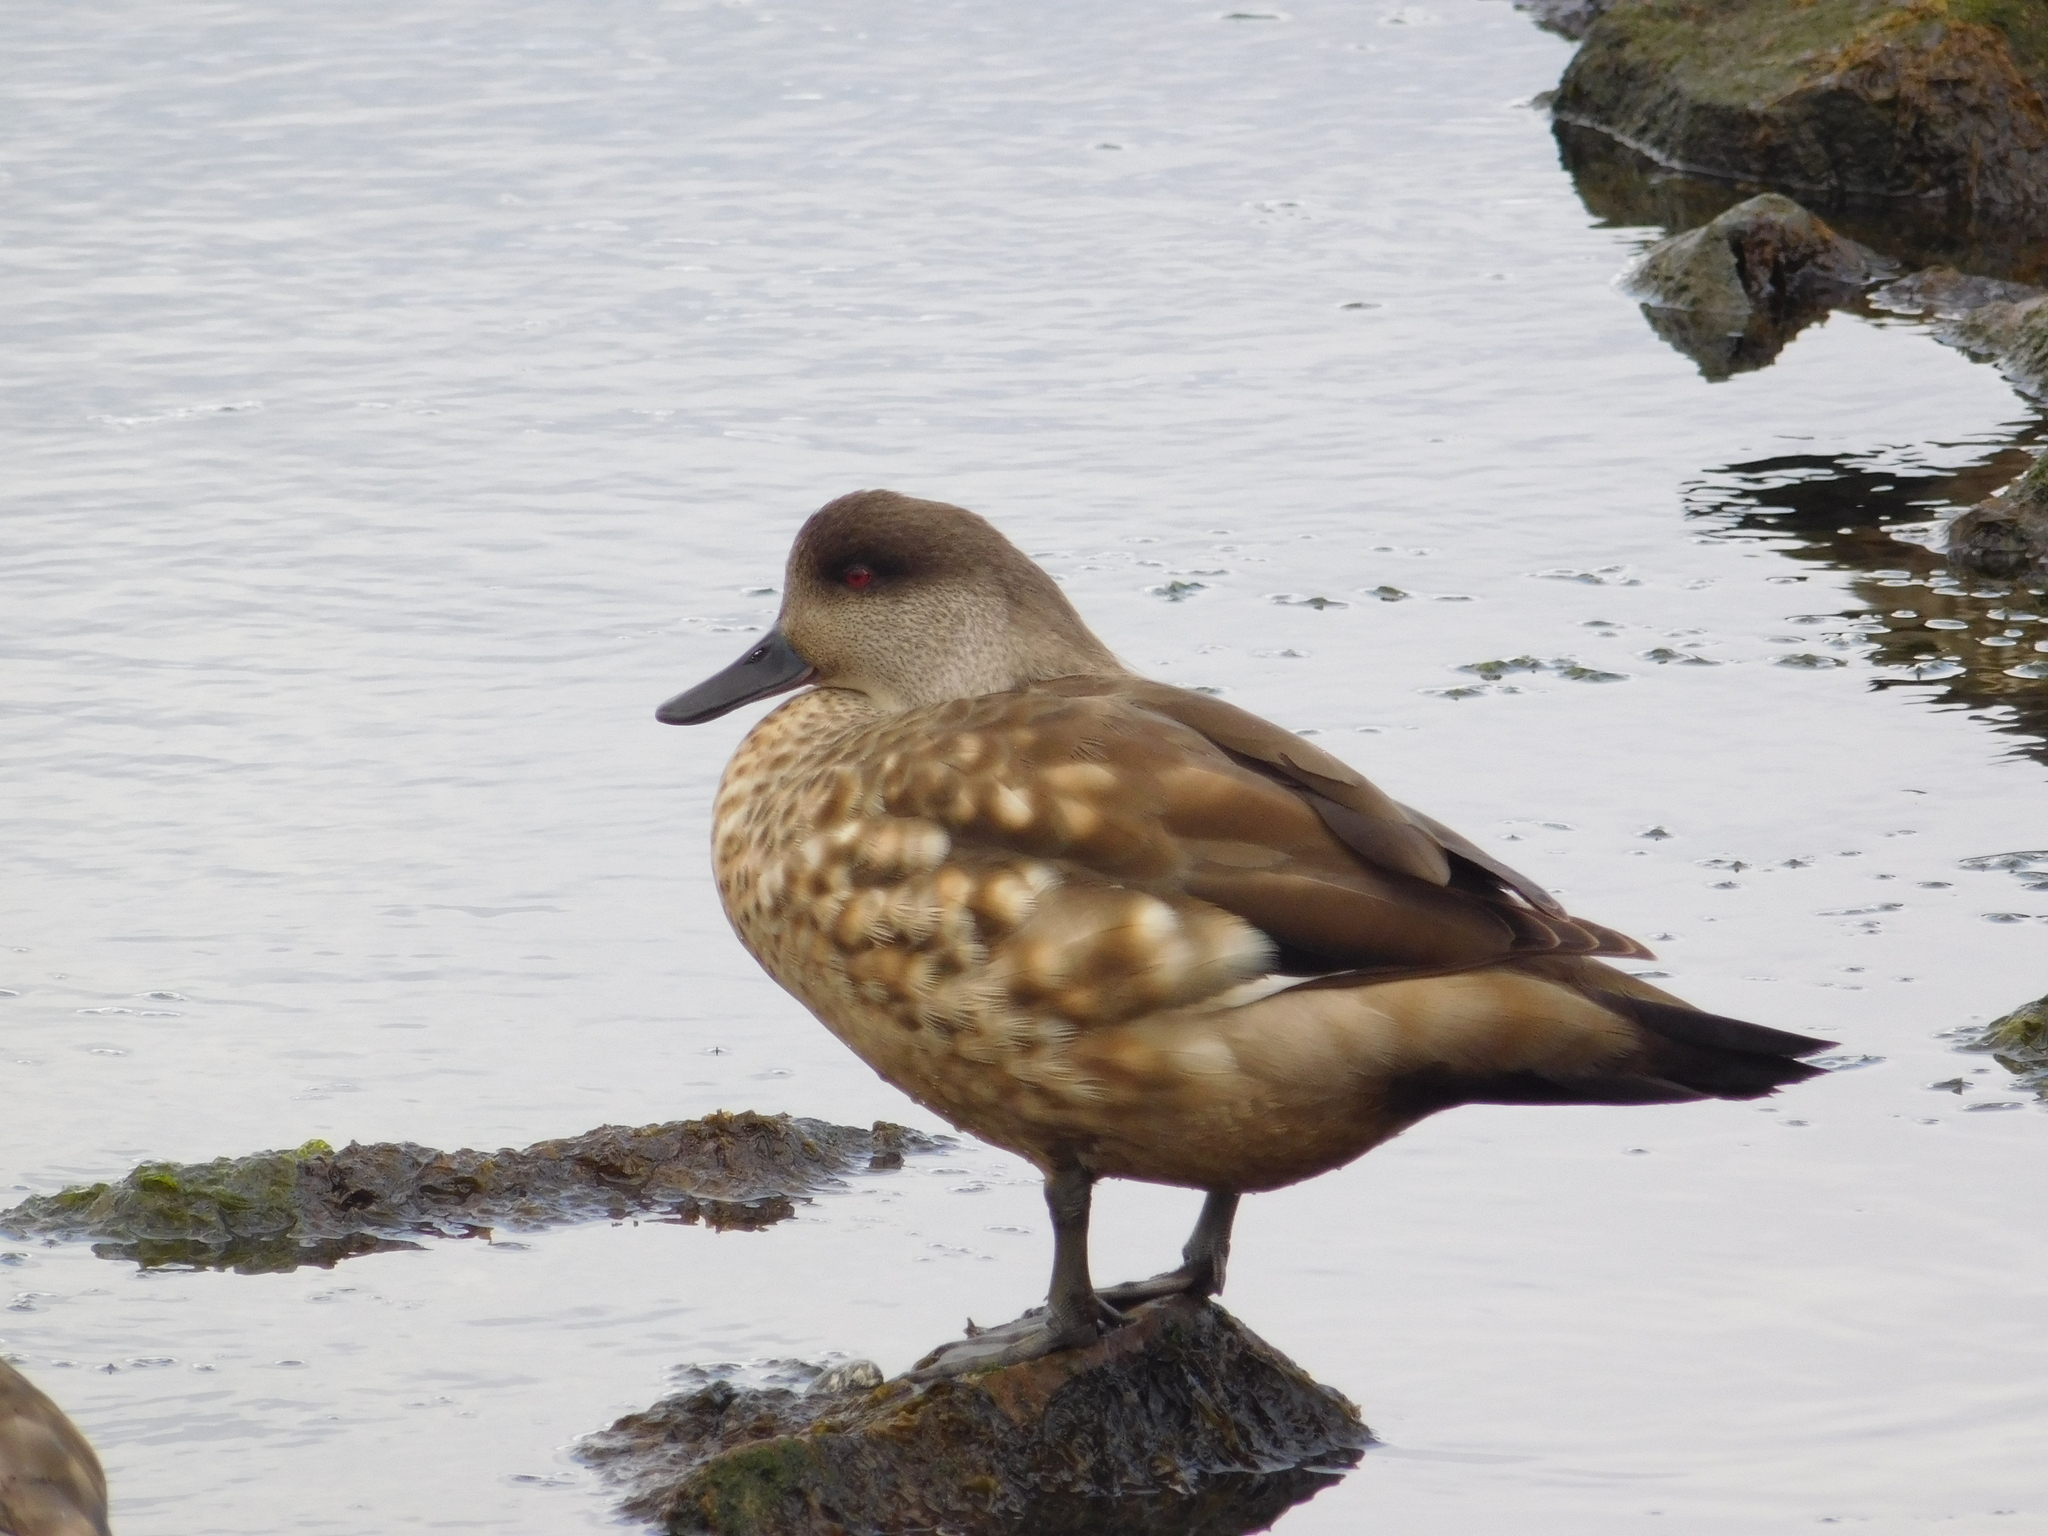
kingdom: Animalia
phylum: Chordata
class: Aves
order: Anseriformes
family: Anatidae
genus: Lophonetta
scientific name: Lophonetta specularioides
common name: Crested duck
